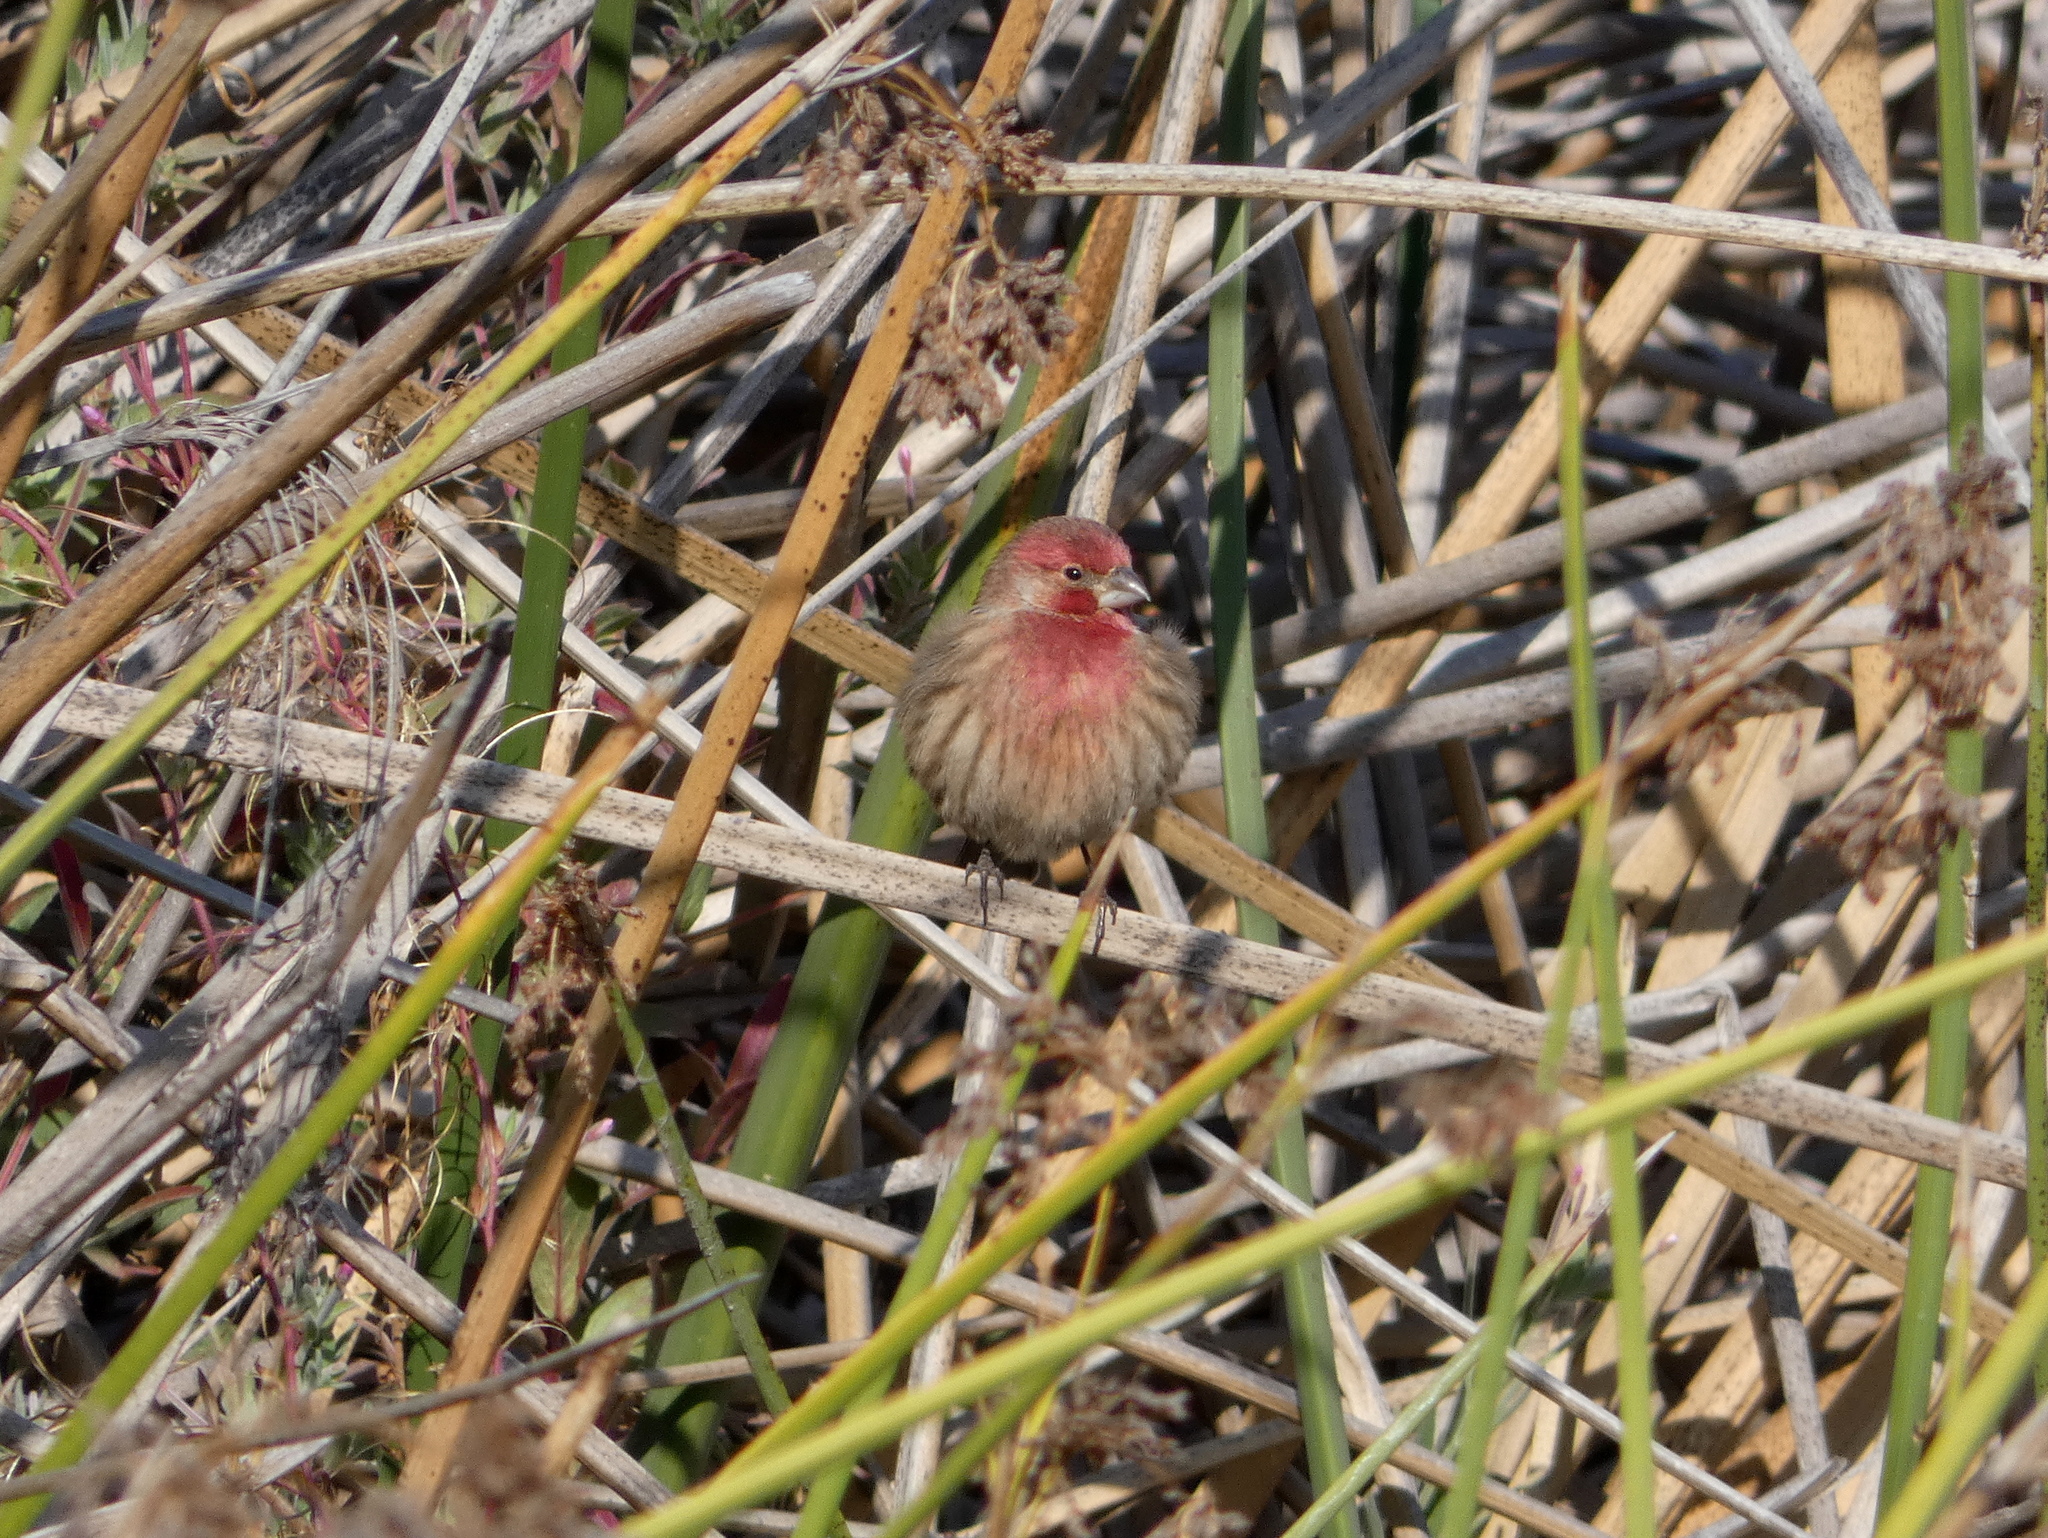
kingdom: Animalia
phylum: Chordata
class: Aves
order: Passeriformes
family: Fringillidae
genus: Haemorhous
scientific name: Haemorhous mexicanus
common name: House finch
